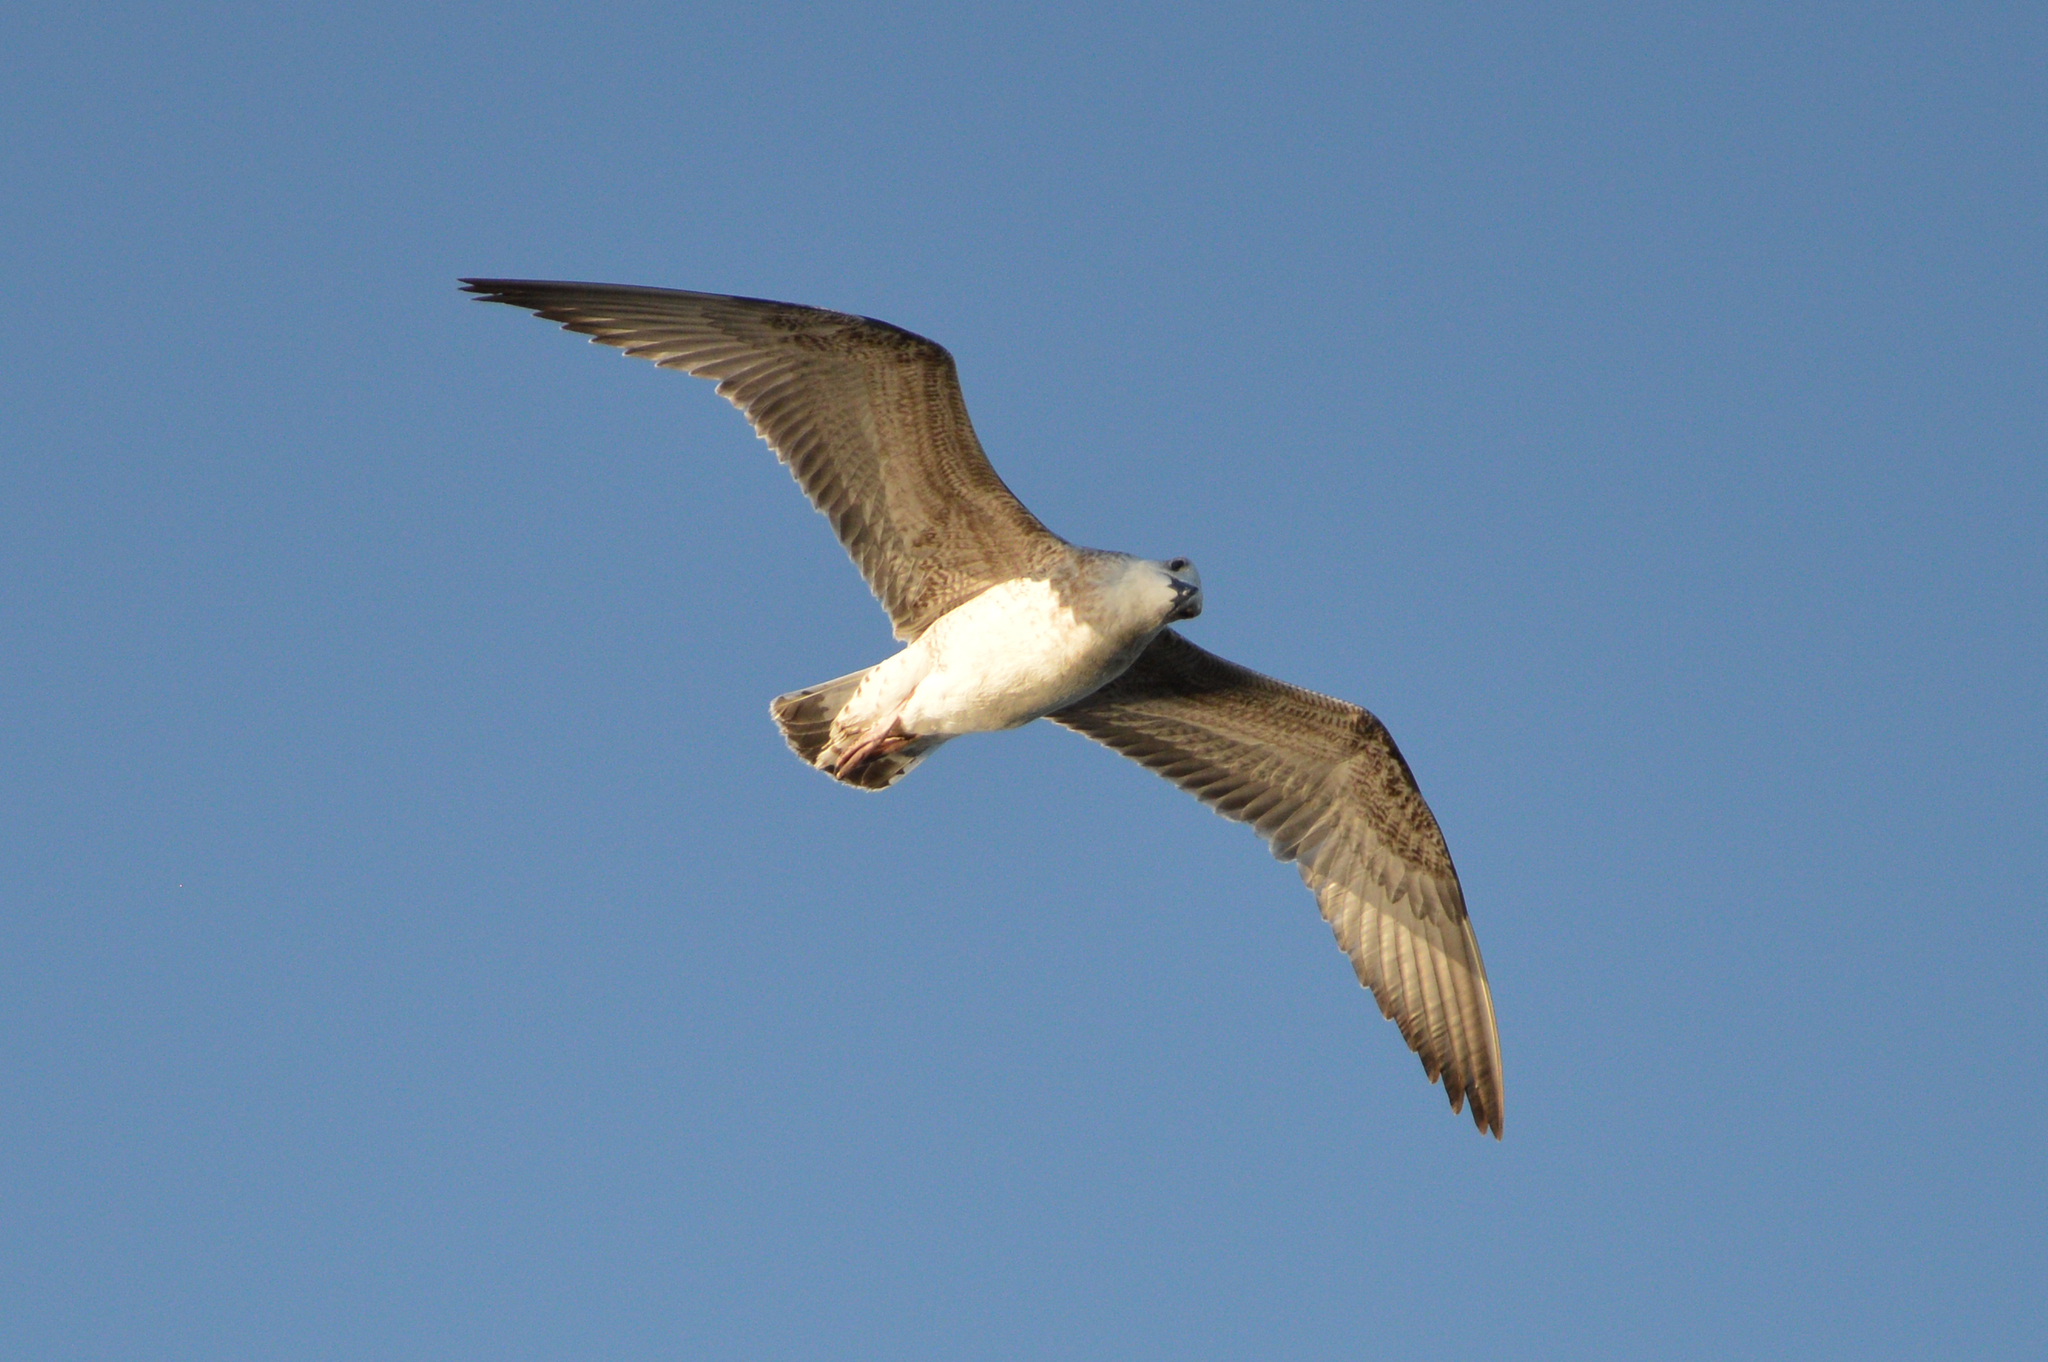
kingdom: Animalia
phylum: Chordata
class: Aves
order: Charadriiformes
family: Laridae
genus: Larus
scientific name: Larus michahellis
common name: Yellow-legged gull
